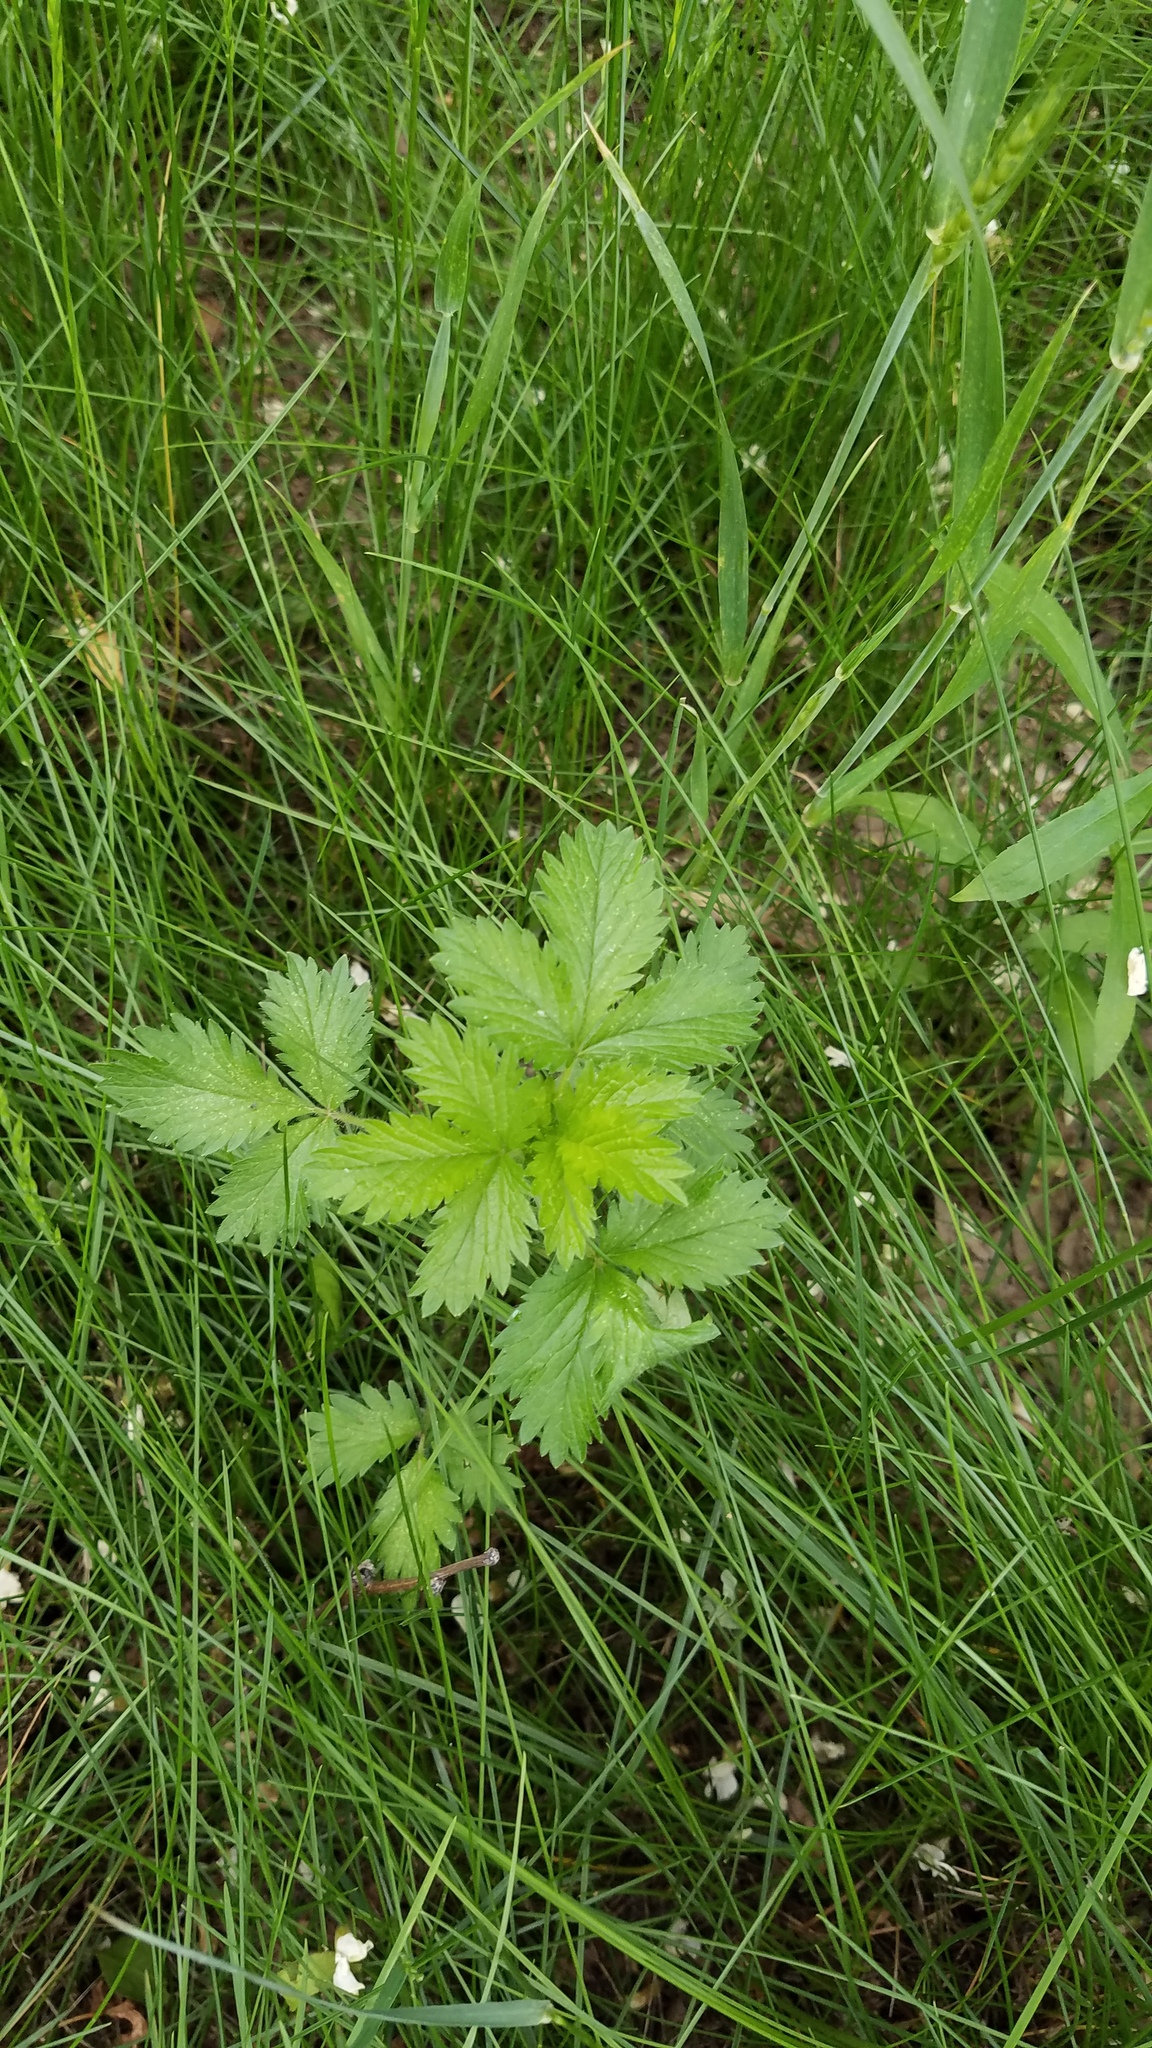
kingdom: Plantae
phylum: Tracheophyta
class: Magnoliopsida
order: Rosales
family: Rosaceae
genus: Potentilla
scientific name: Potentilla norvegica
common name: Ternate-leaved cinquefoil
